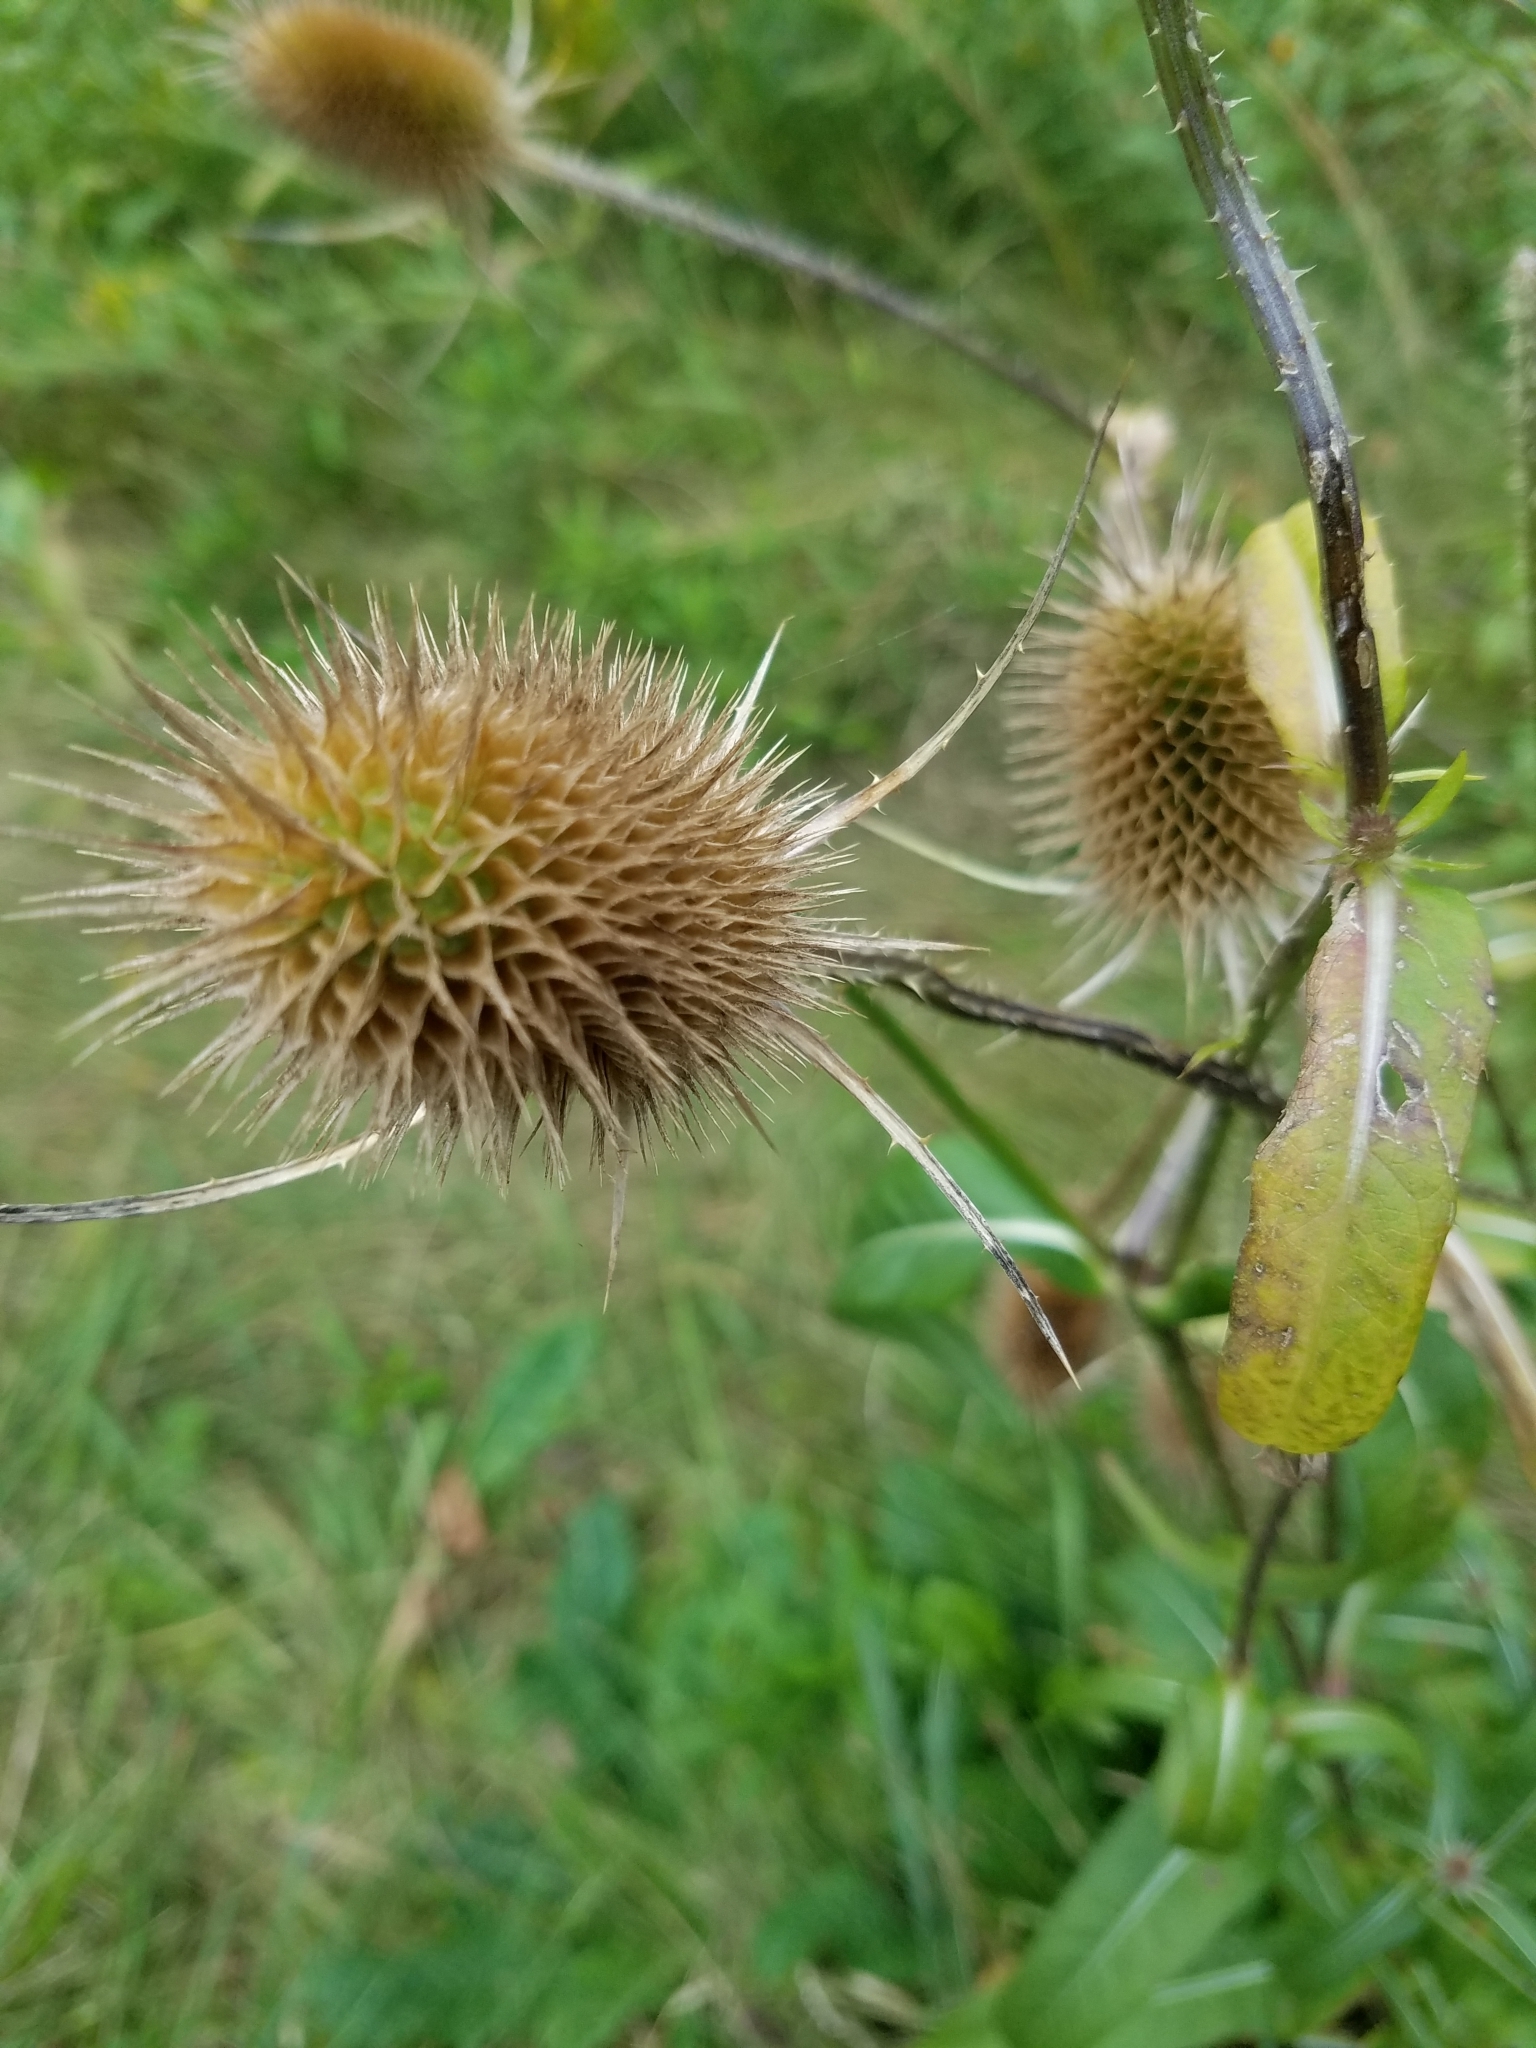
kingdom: Plantae
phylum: Tracheophyta
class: Magnoliopsida
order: Dipsacales
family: Caprifoliaceae
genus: Dipsacus
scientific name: Dipsacus fullonum
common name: Teasel
